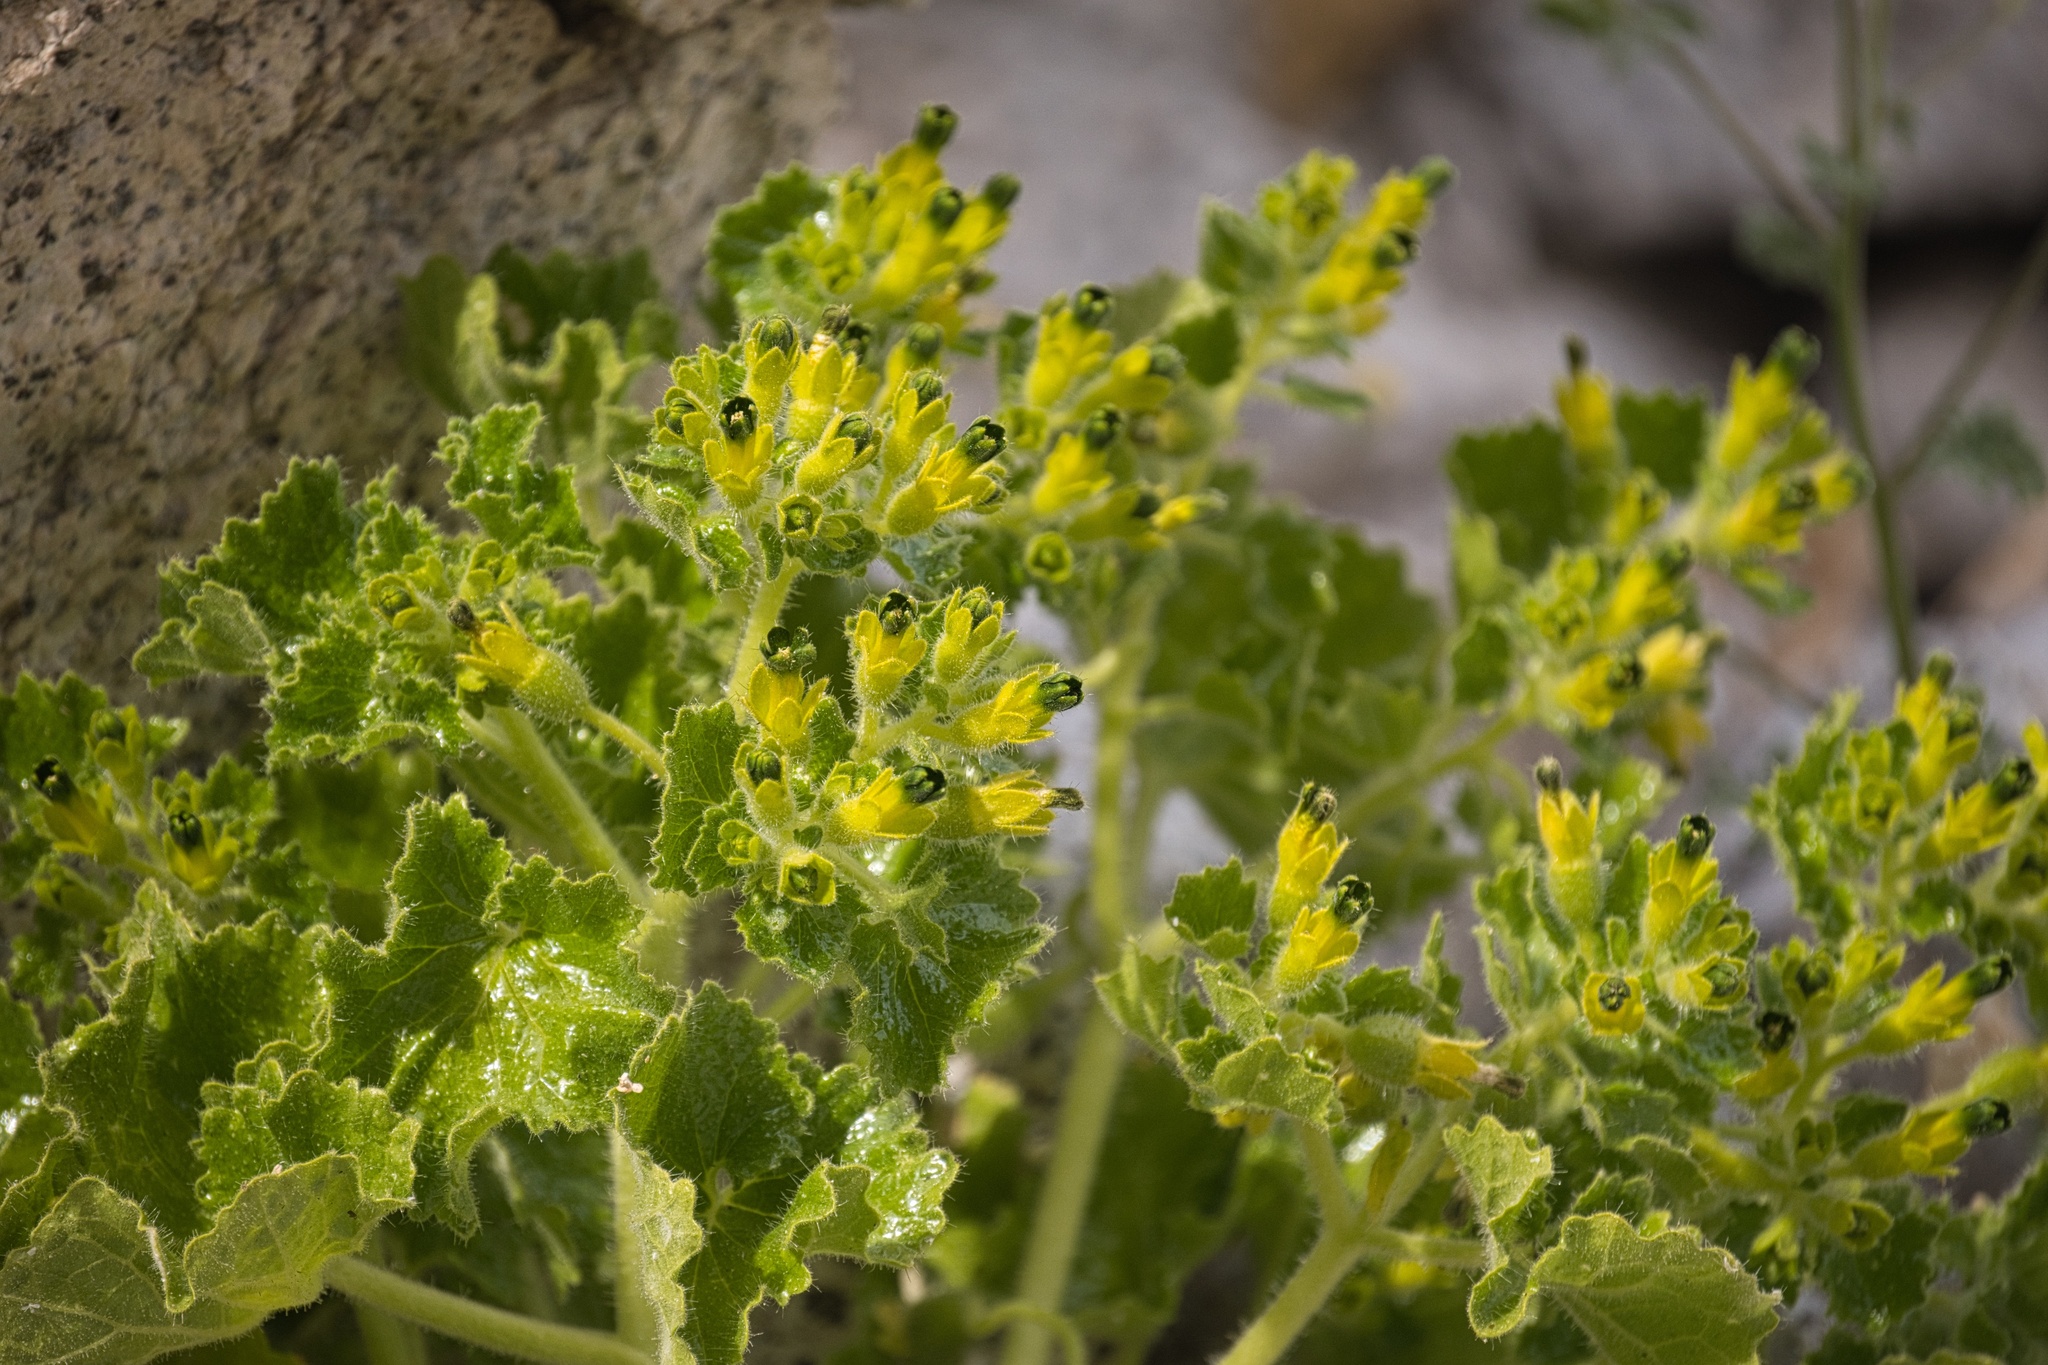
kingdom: Plantae
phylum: Tracheophyta
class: Magnoliopsida
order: Cornales
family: Loasaceae
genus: Eucnide
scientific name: Eucnide rupestris
